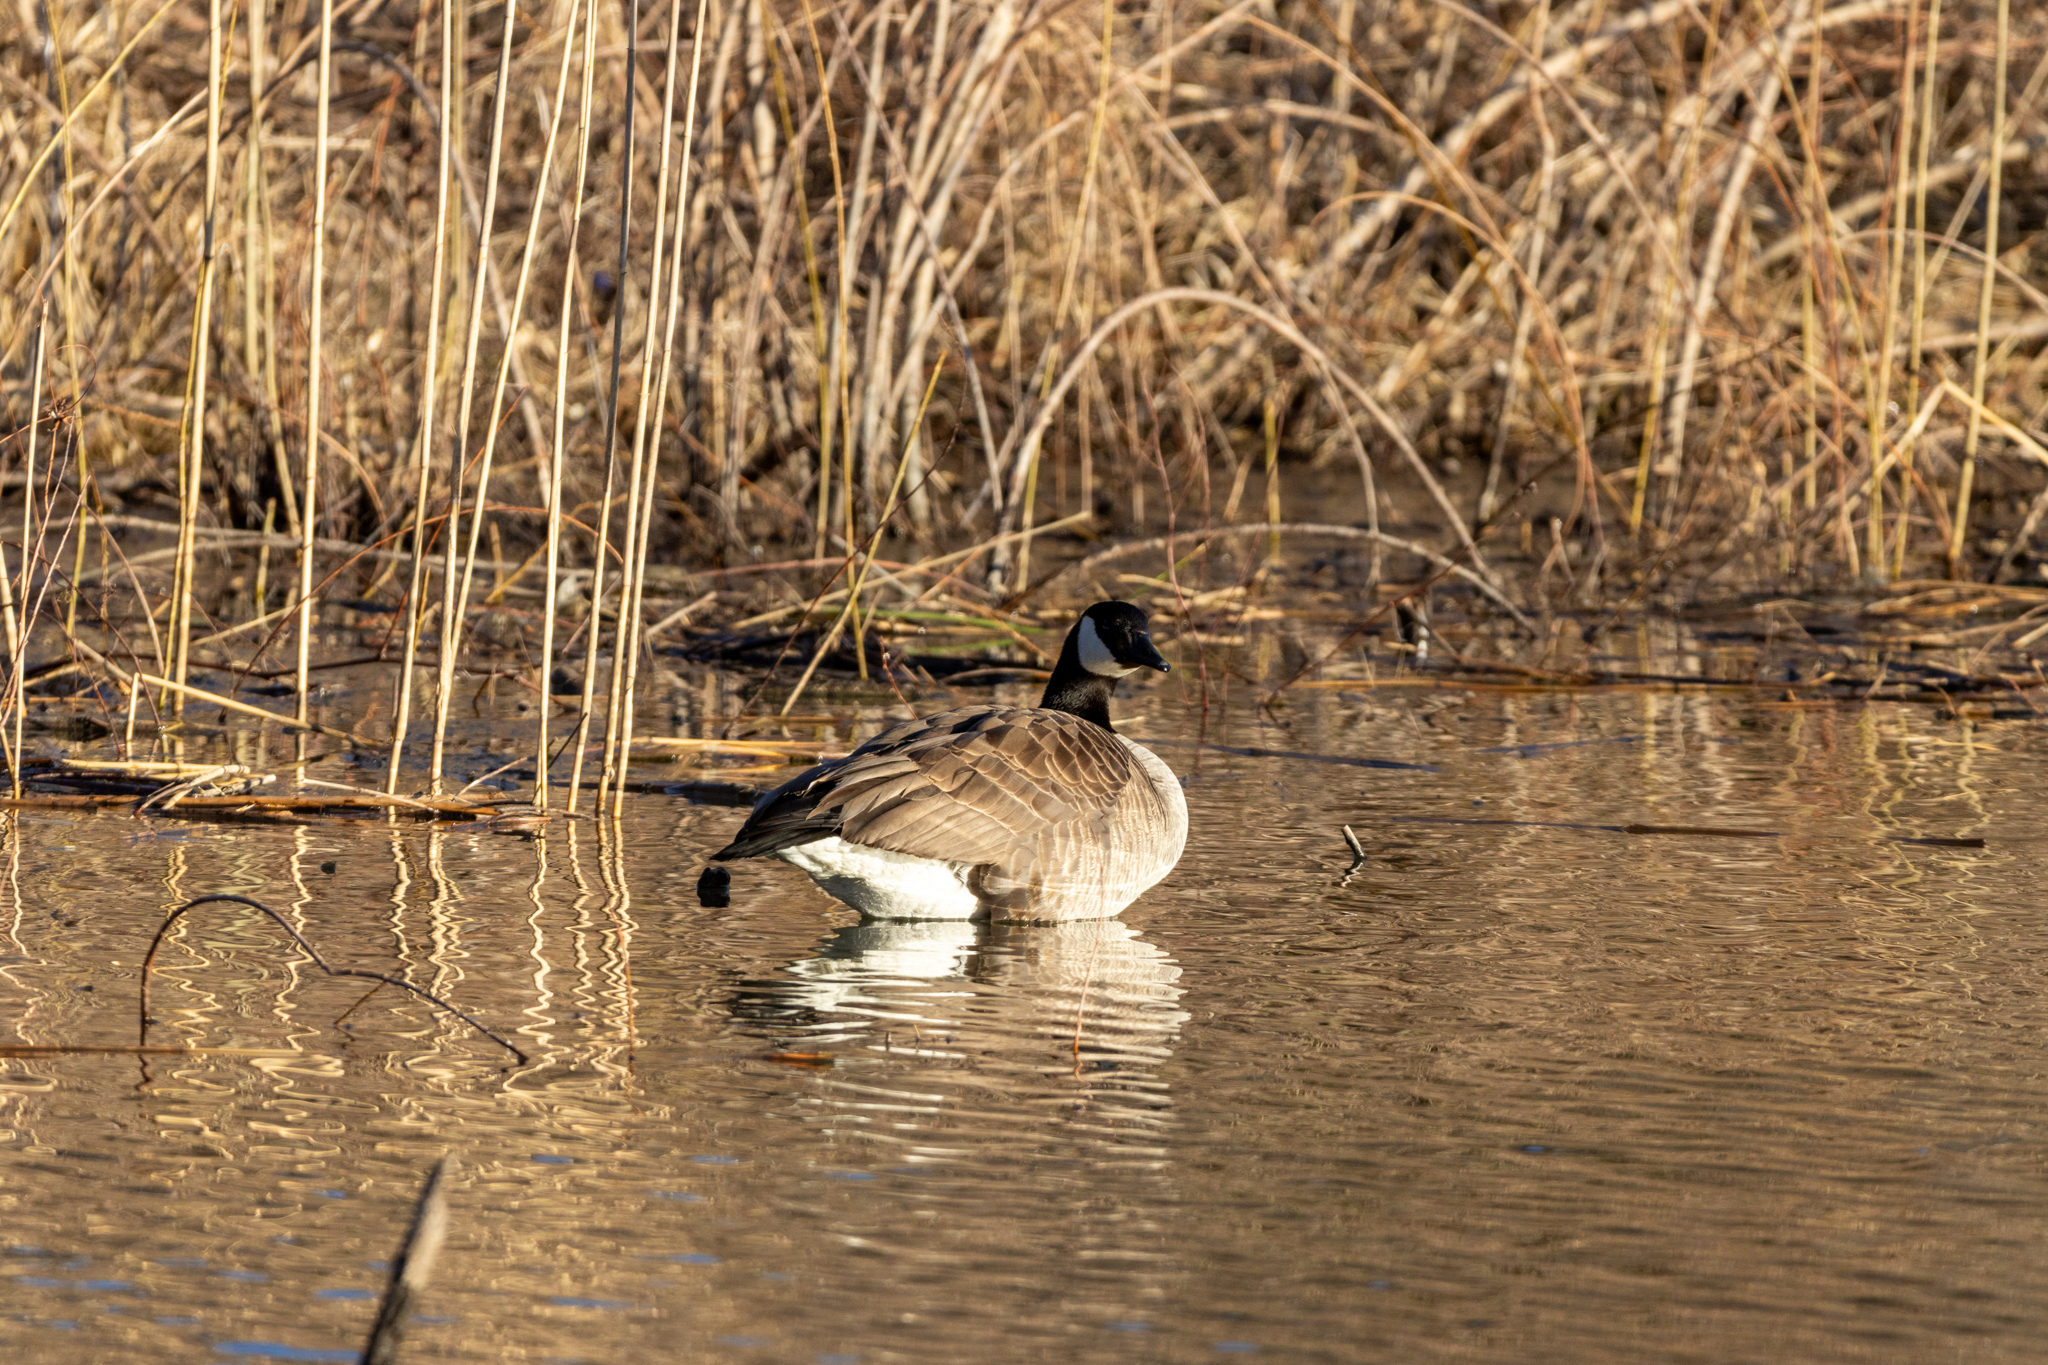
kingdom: Animalia
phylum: Chordata
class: Aves
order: Anseriformes
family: Anatidae
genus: Branta
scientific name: Branta canadensis
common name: Canada goose
